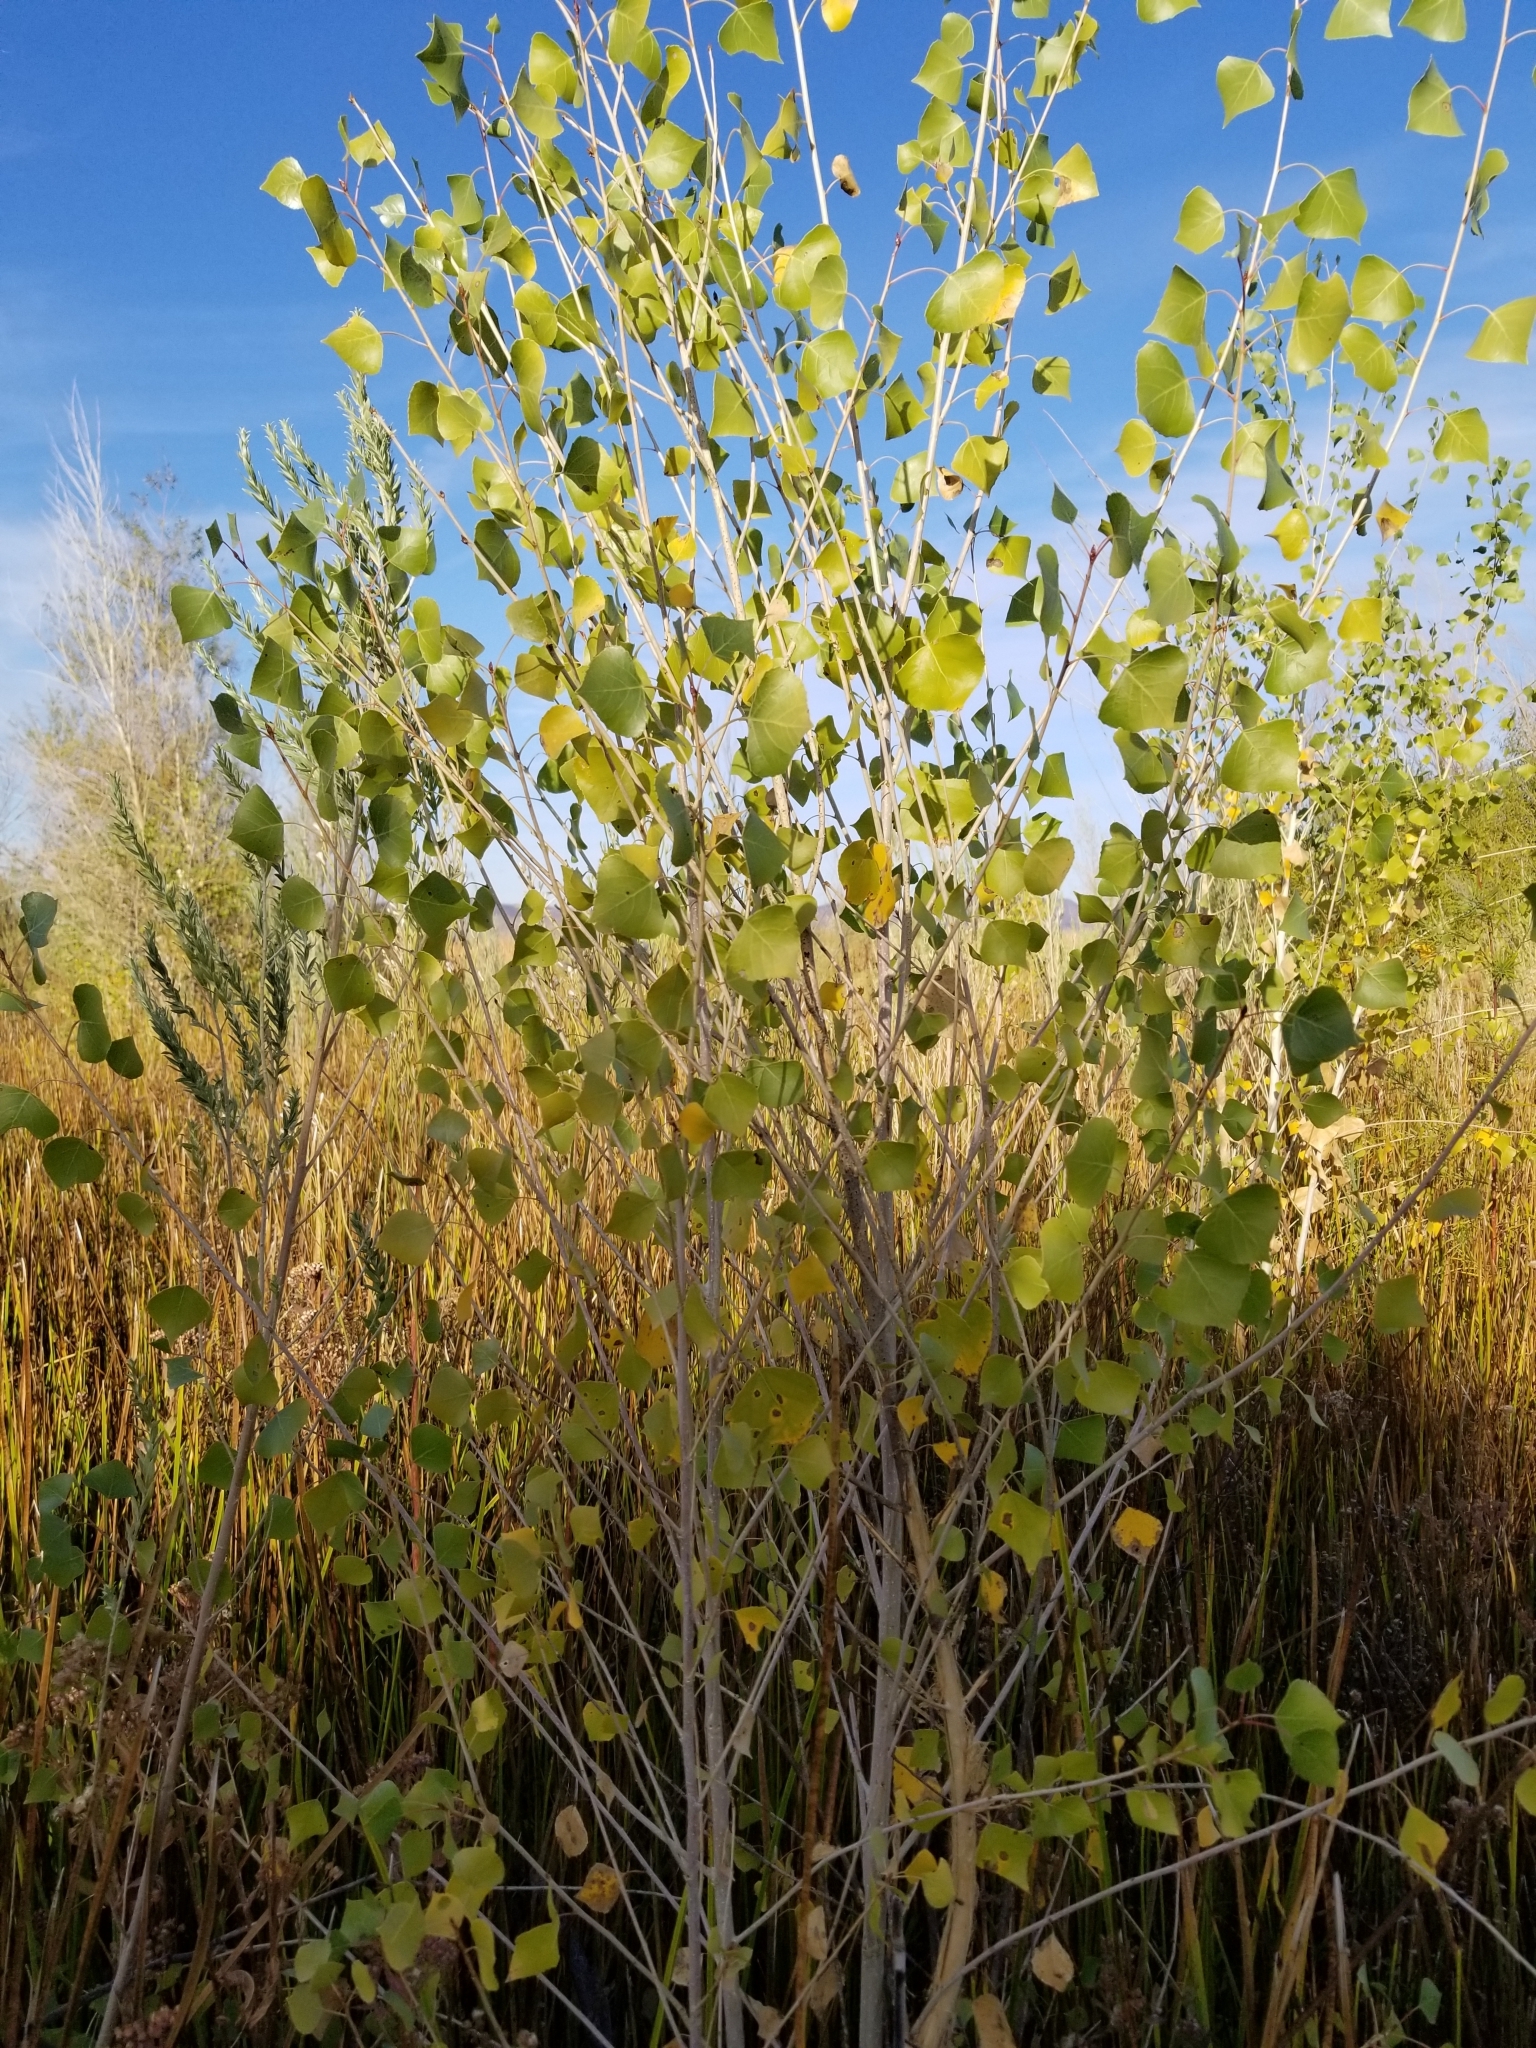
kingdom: Plantae
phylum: Tracheophyta
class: Magnoliopsida
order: Malpighiales
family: Salicaceae
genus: Populus
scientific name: Populus fremontii
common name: Fremont's cottonwood
